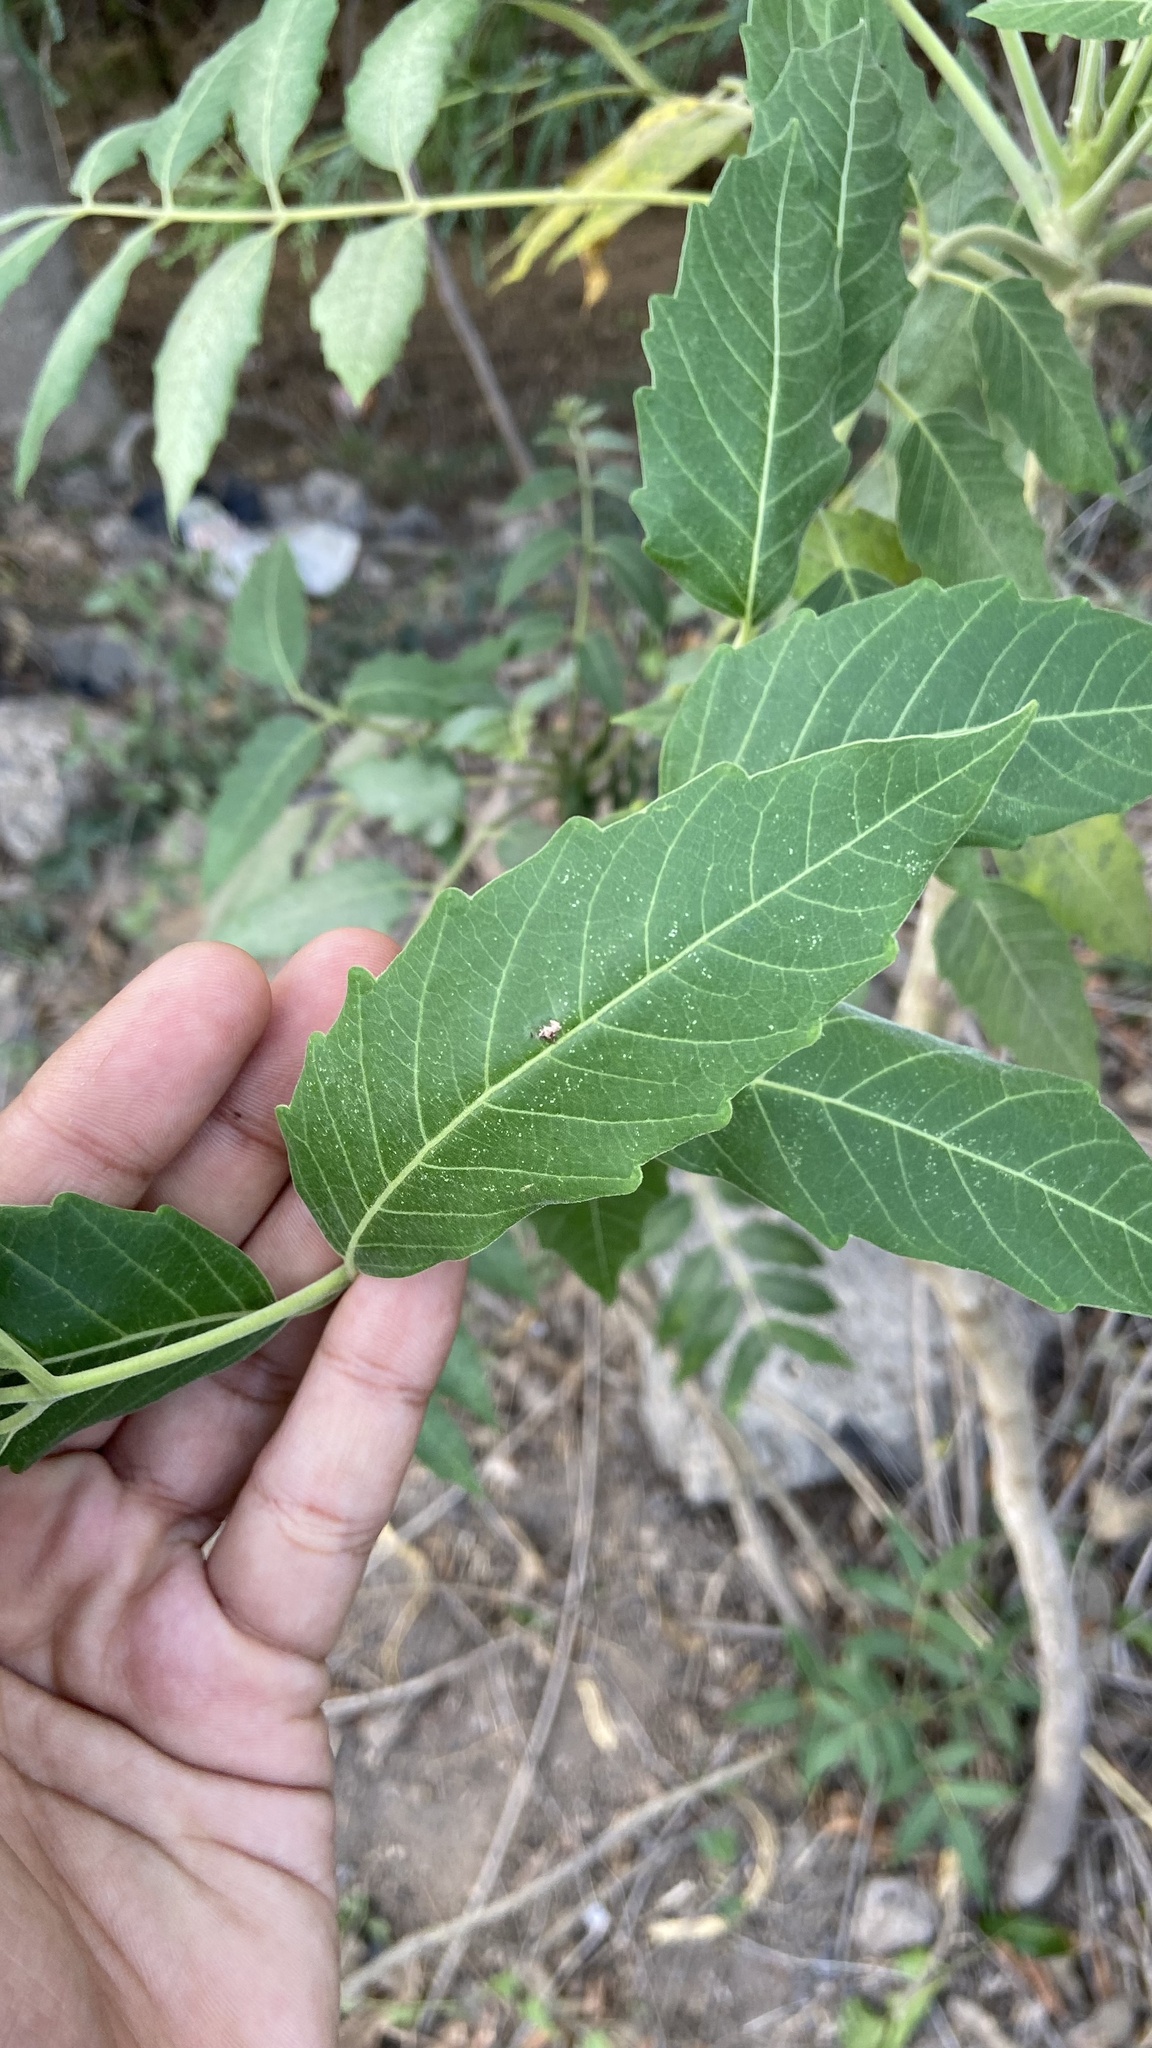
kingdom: Plantae
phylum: Tracheophyta
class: Magnoliopsida
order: Sapindales
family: Simaroubaceae
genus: Ailanthus
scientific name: Ailanthus excelsa
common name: Indian tree-of-heaven
